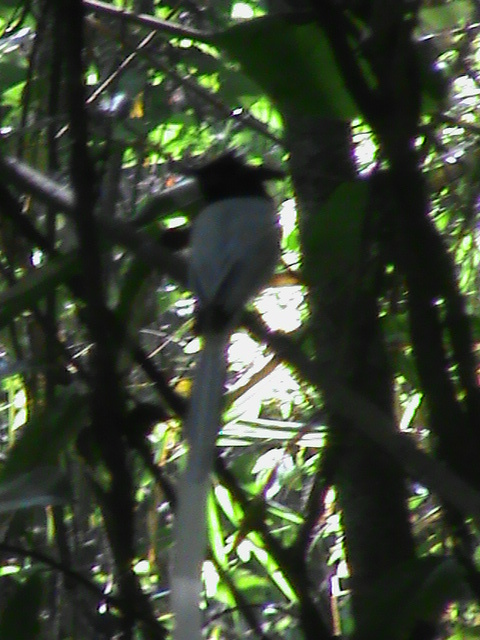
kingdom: Animalia
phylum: Chordata
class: Aves
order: Passeriformes
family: Monarchidae
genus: Terpsiphone
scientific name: Terpsiphone paradisi
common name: Indian paradise flycatcher
